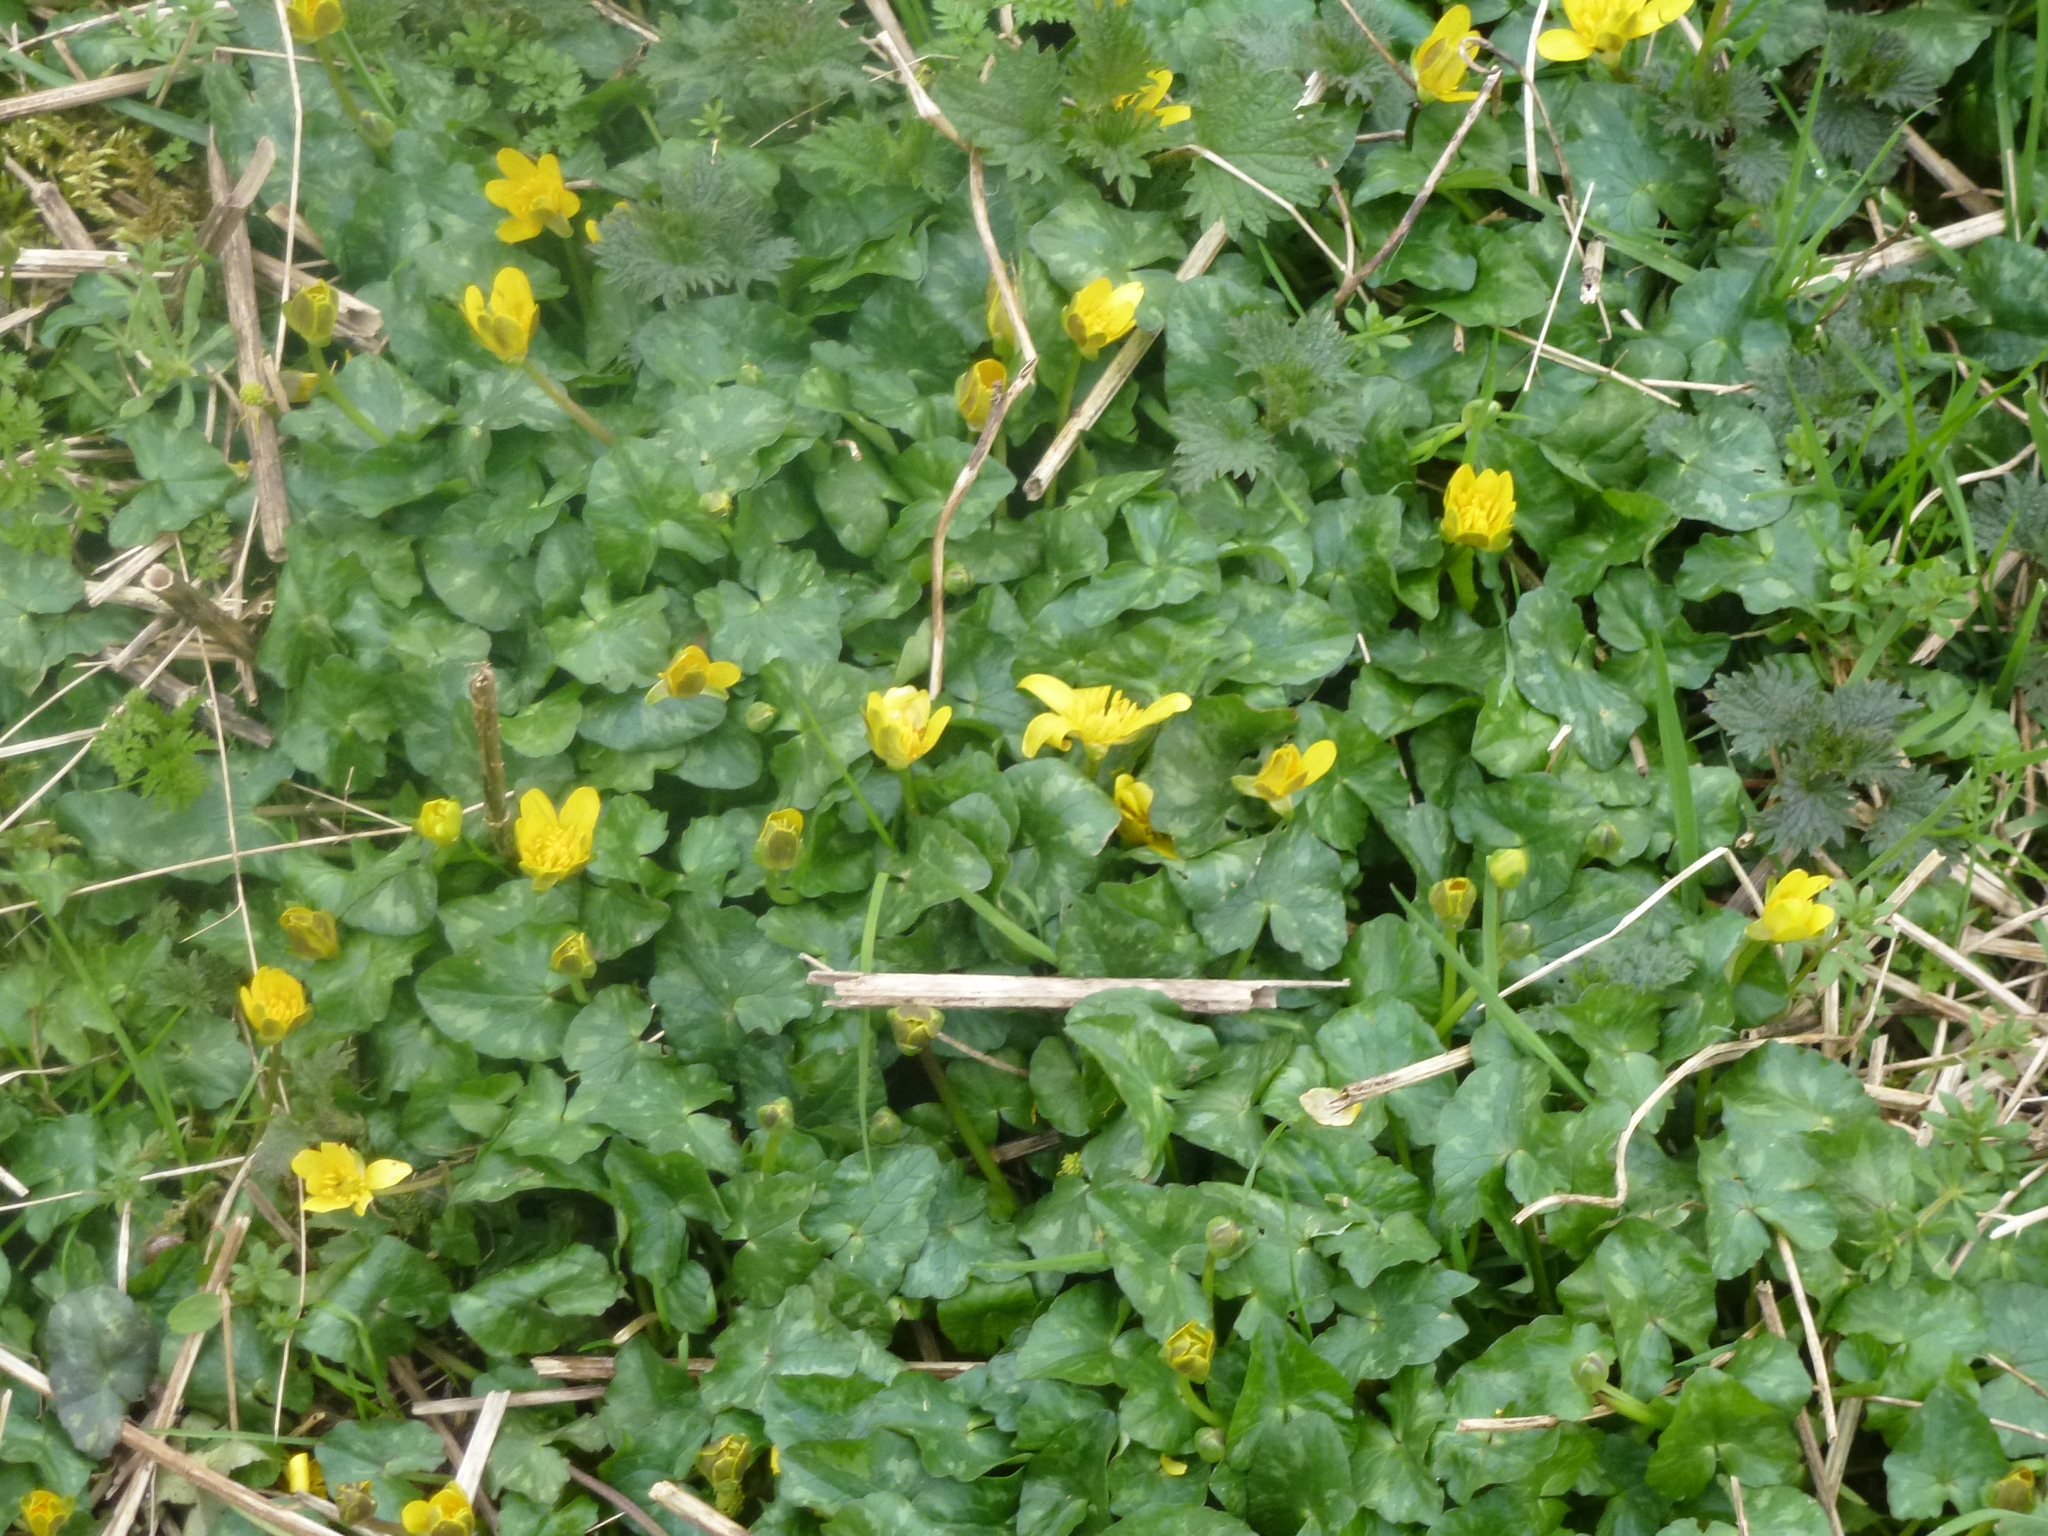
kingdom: Plantae
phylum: Tracheophyta
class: Magnoliopsida
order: Ranunculales
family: Ranunculaceae
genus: Ficaria
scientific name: Ficaria verna
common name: Lesser celandine
